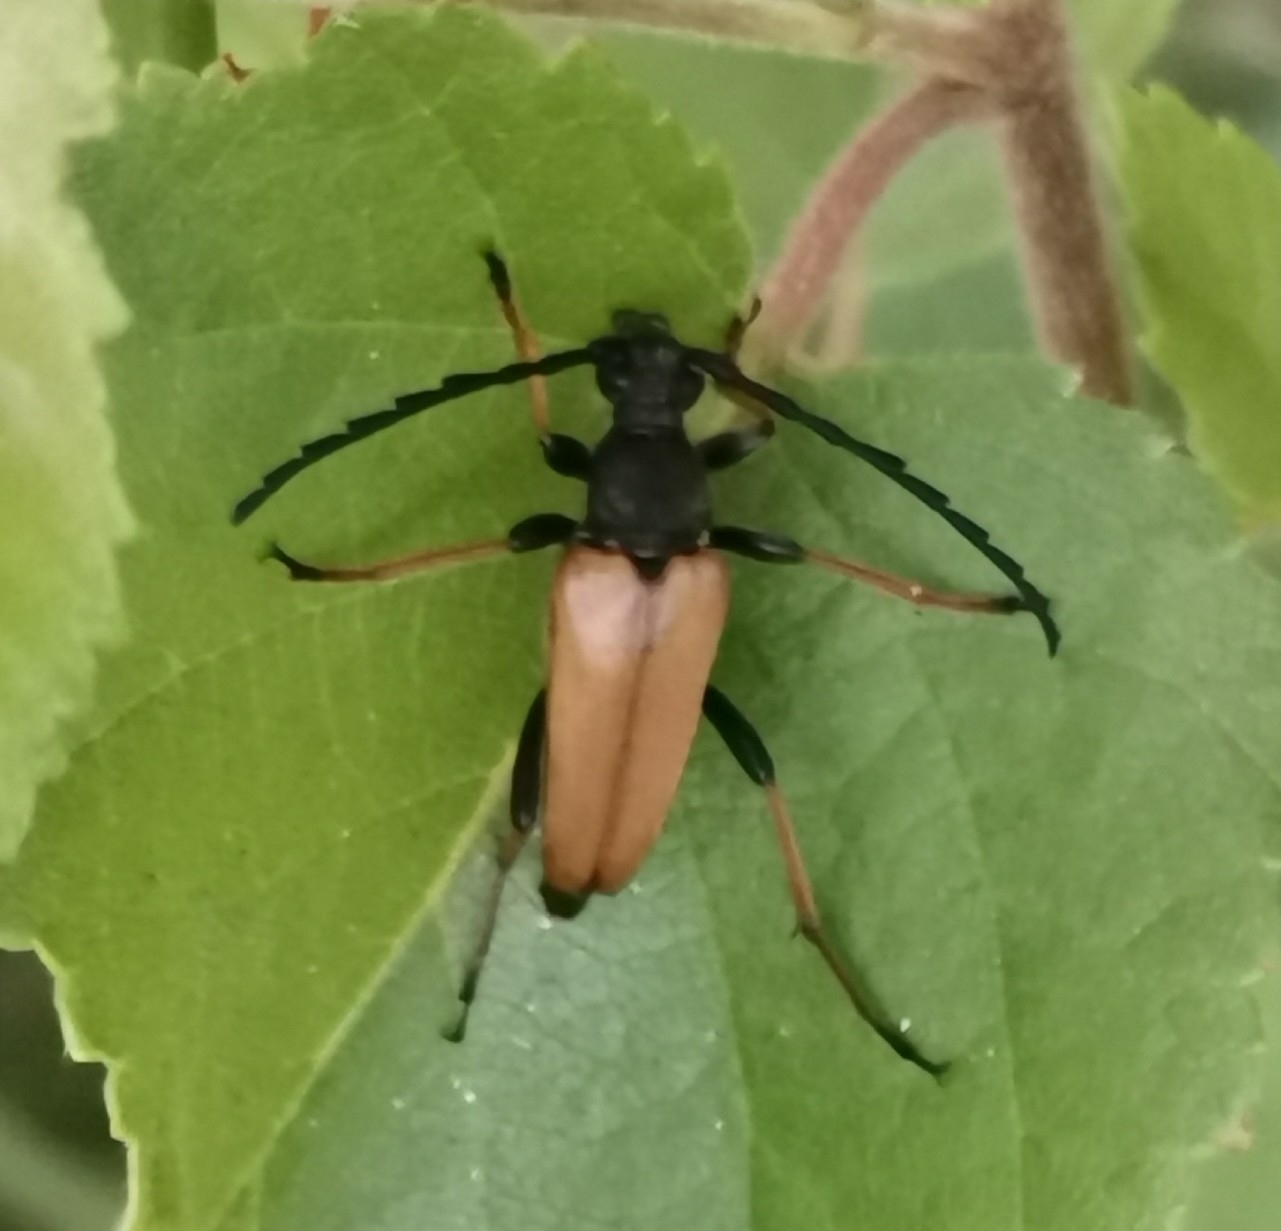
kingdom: Animalia
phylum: Arthropoda
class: Insecta
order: Coleoptera
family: Cerambycidae
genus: Stictoleptura
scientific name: Stictoleptura rubra
